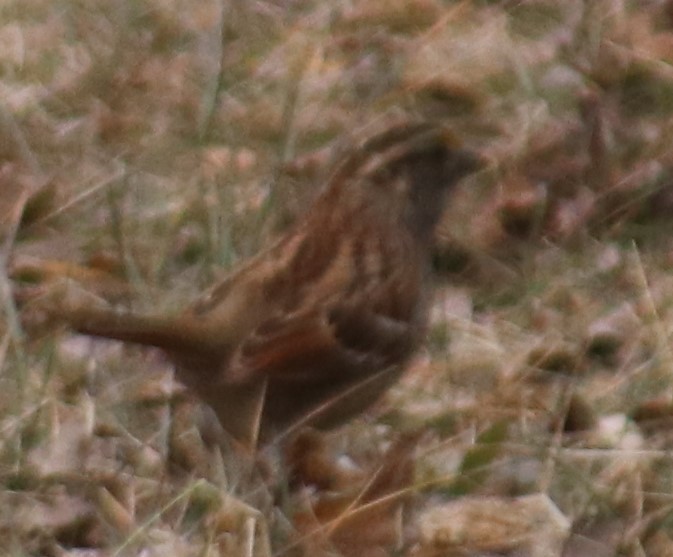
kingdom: Animalia
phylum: Chordata
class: Aves
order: Passeriformes
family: Passerellidae
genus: Zonotrichia
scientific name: Zonotrichia albicollis
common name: White-throated sparrow
